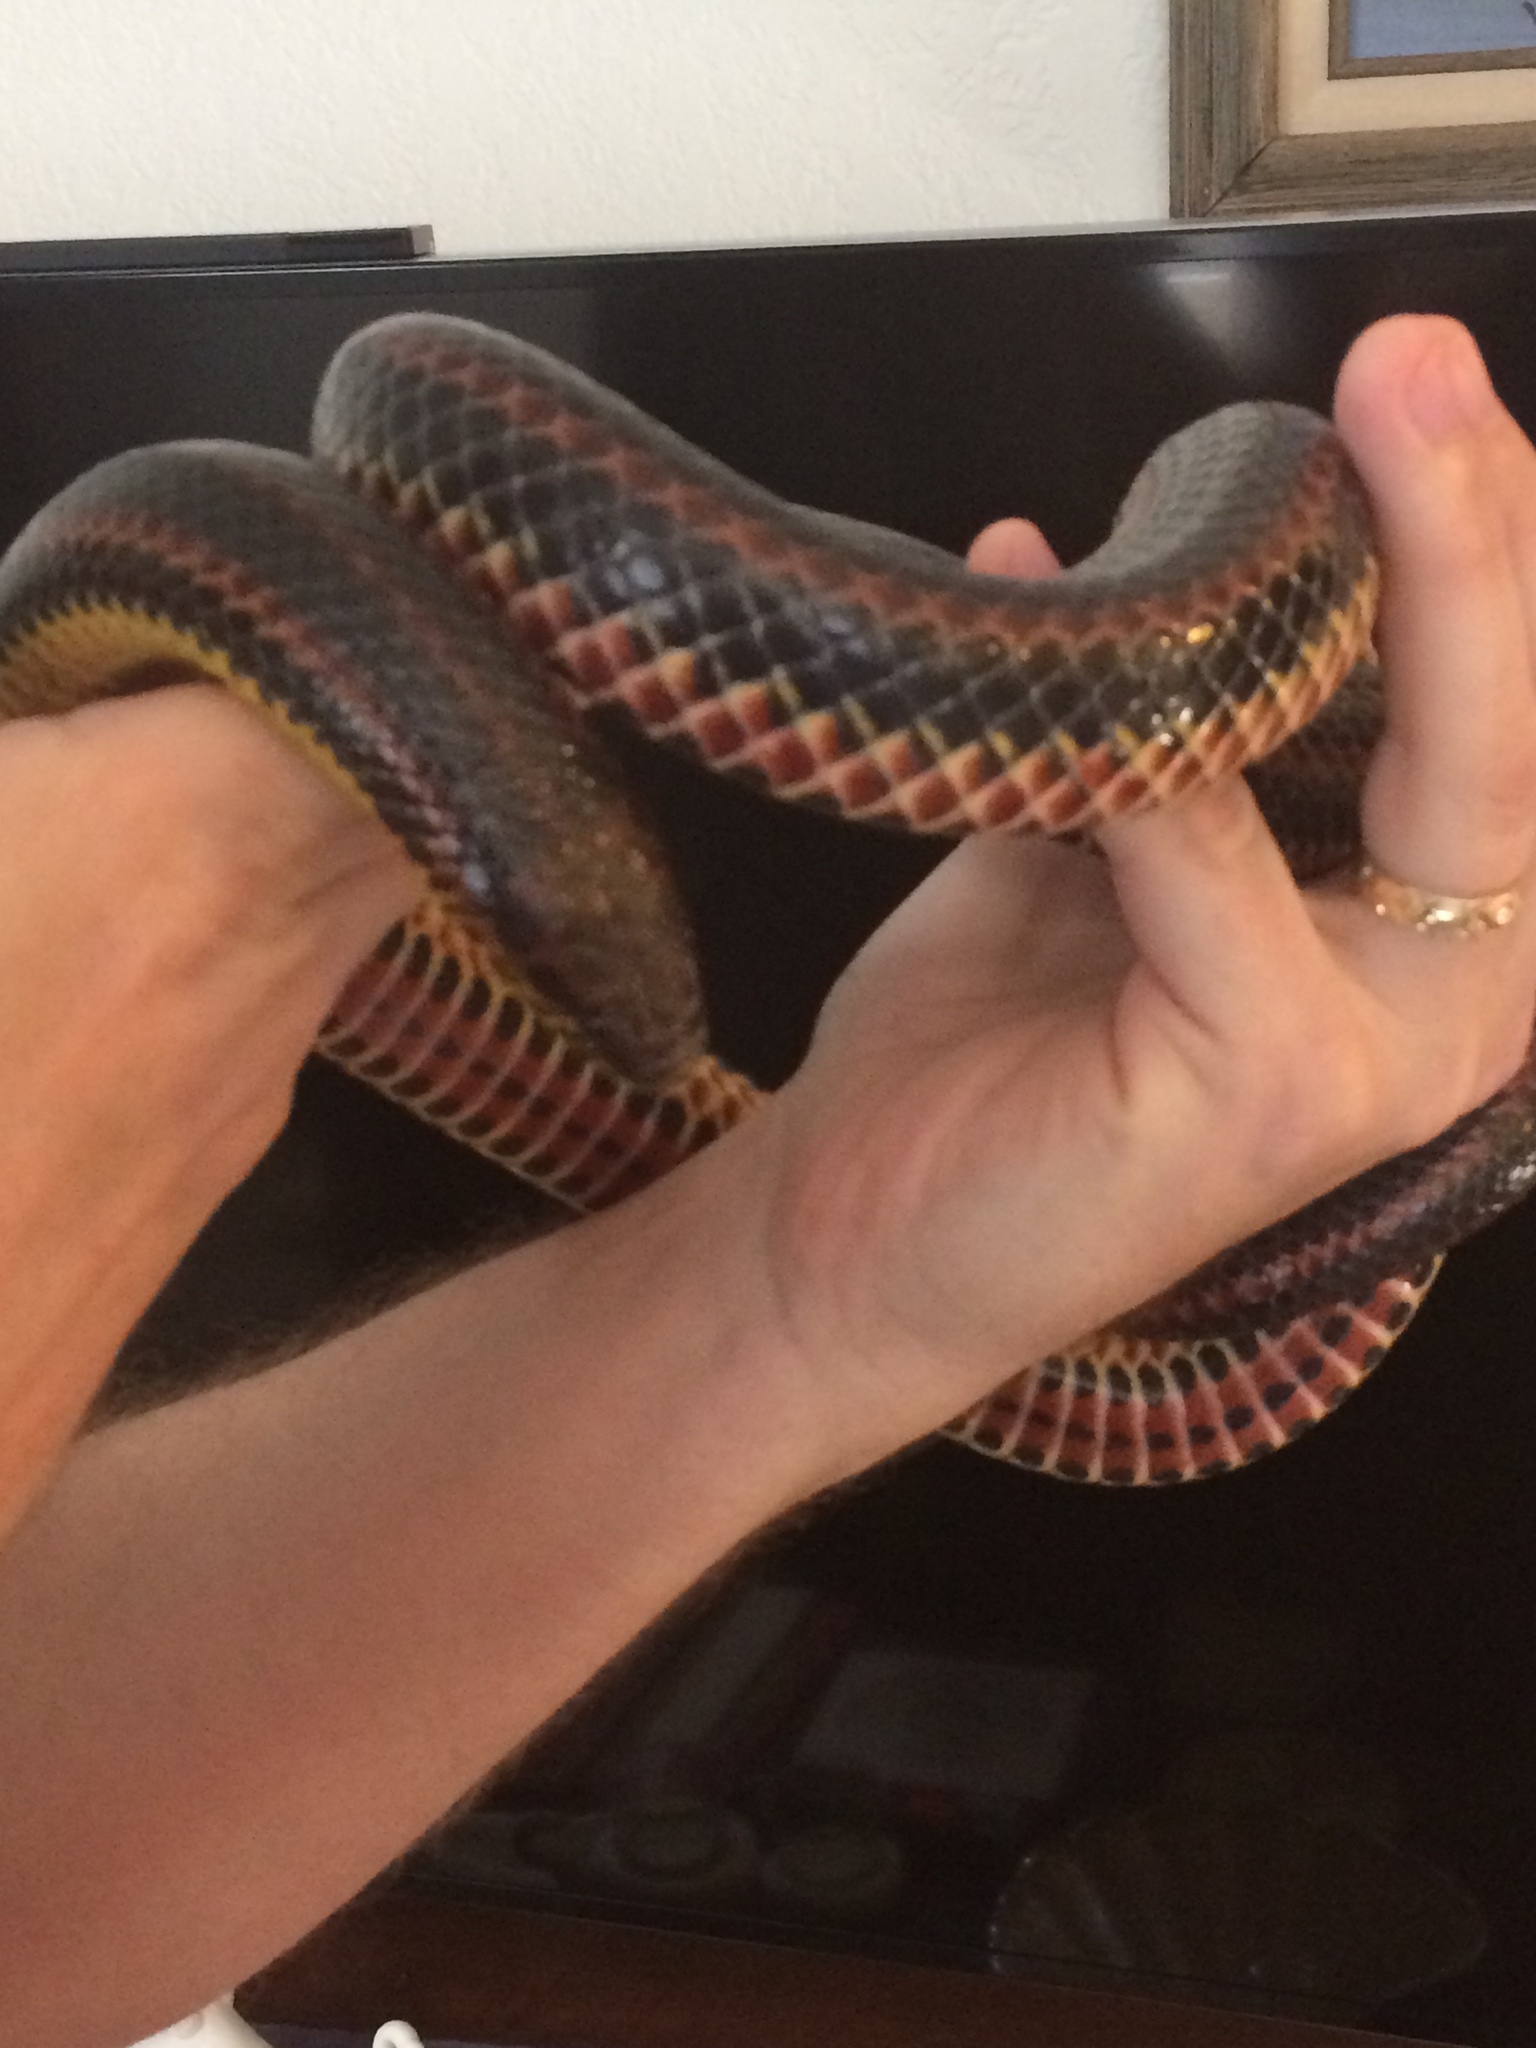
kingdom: Animalia
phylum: Chordata
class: Squamata
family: Colubridae
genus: Farancia
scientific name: Farancia erytrogramma
